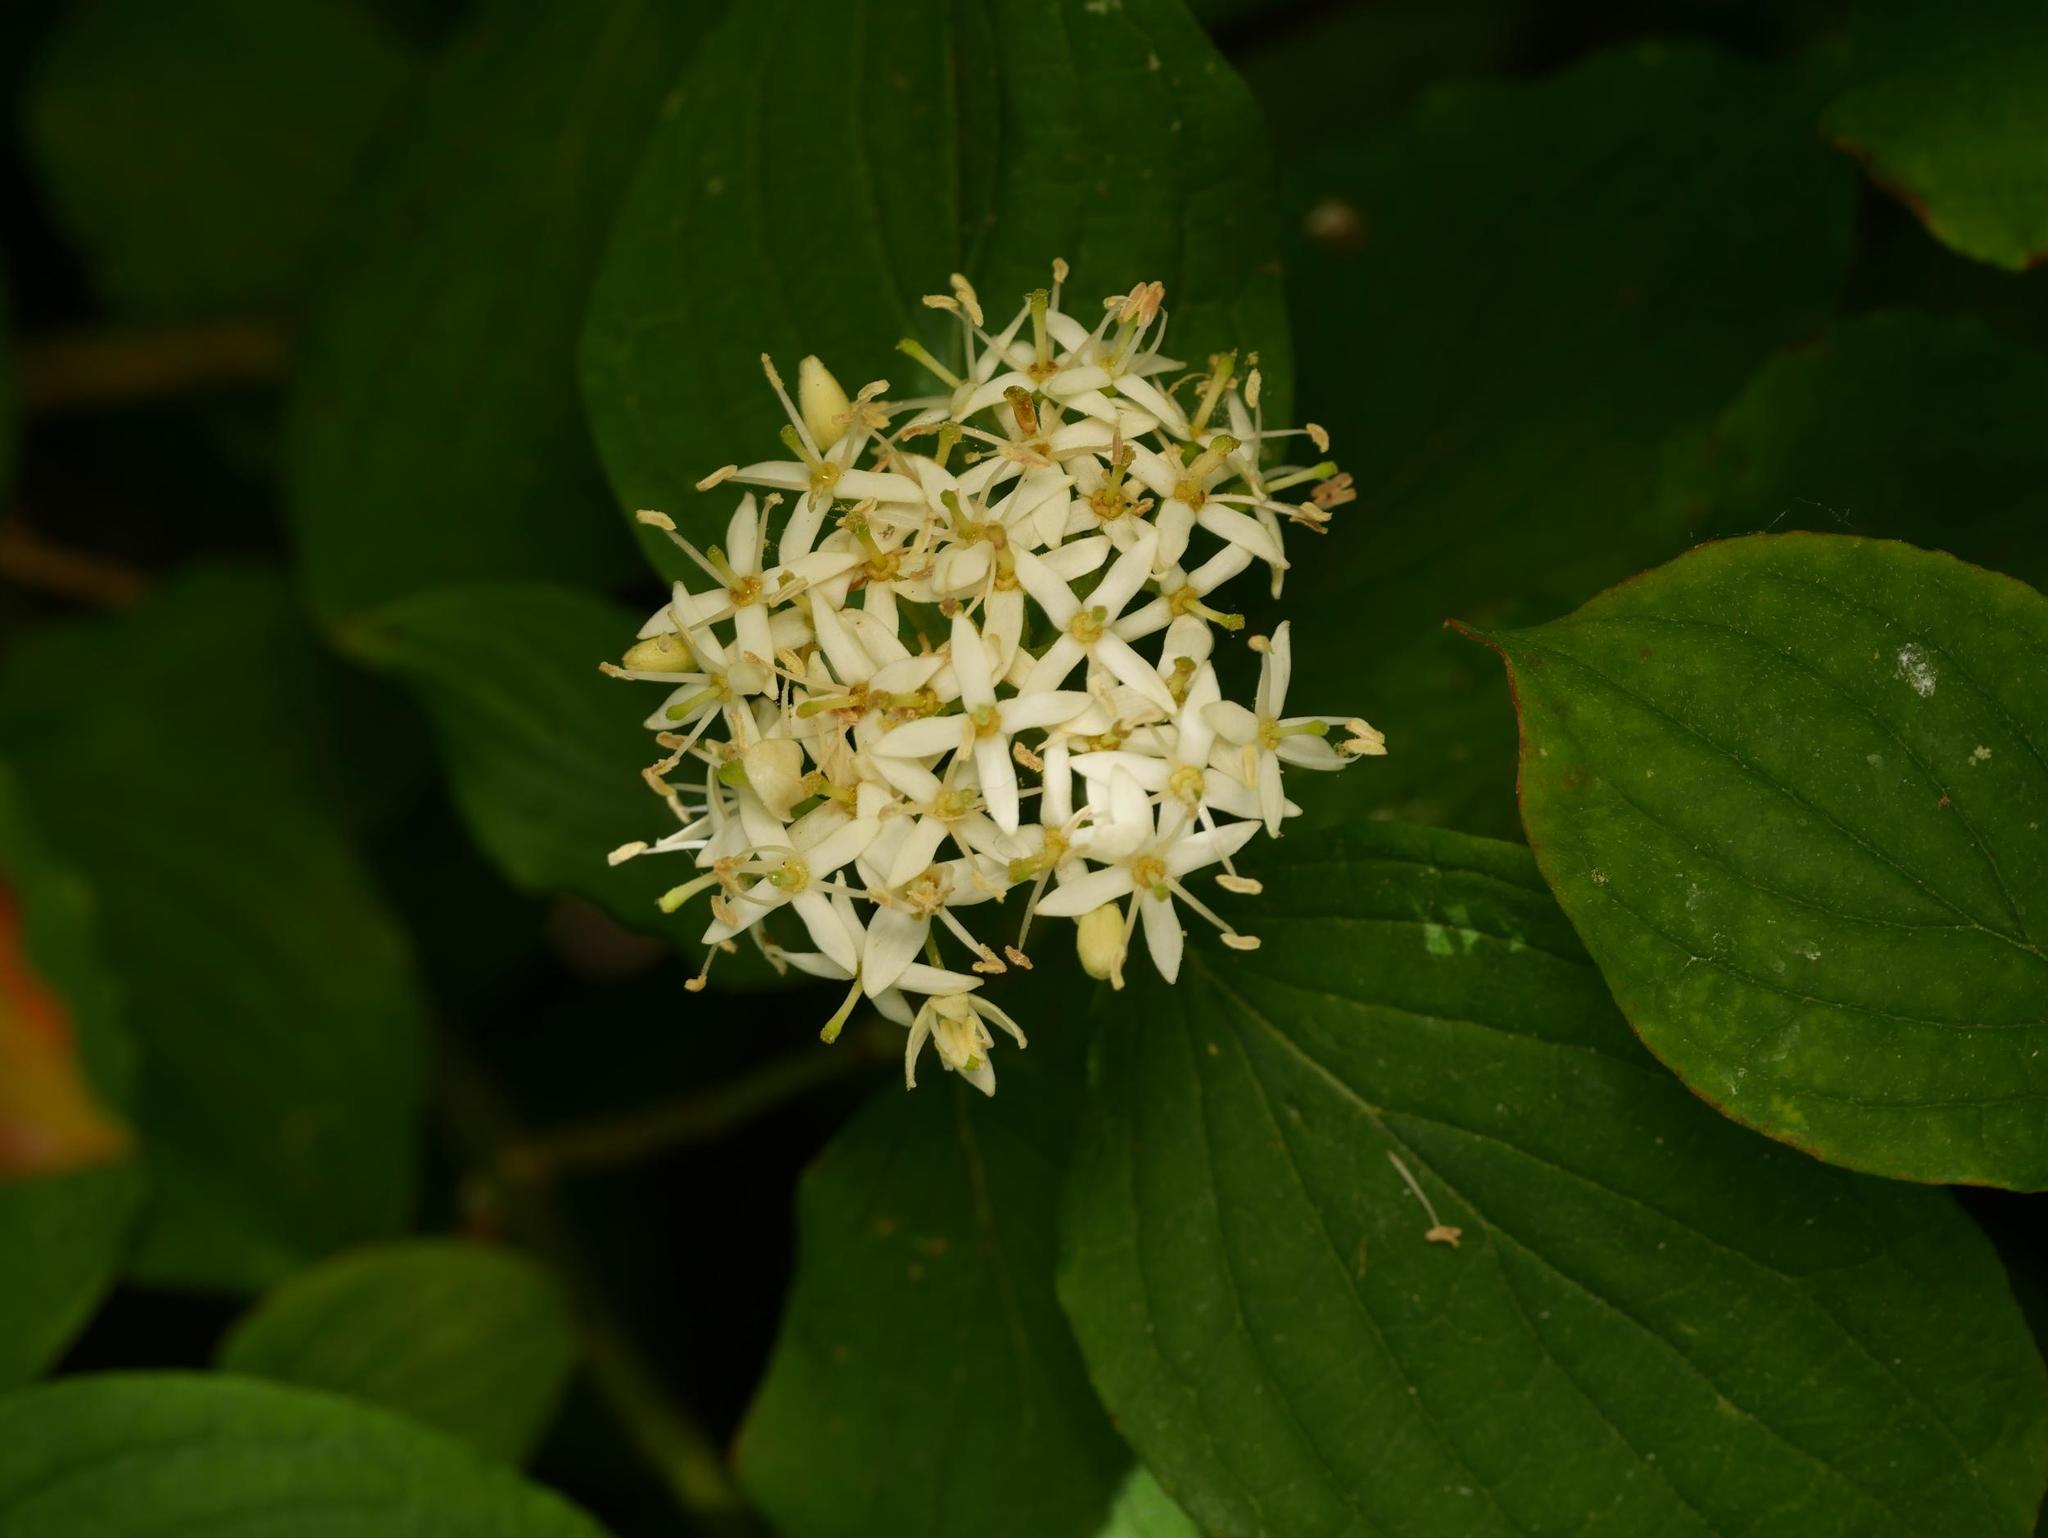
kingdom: Plantae
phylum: Tracheophyta
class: Magnoliopsida
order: Cornales
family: Cornaceae
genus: Cornus
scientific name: Cornus sanguinea
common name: Dogwood
